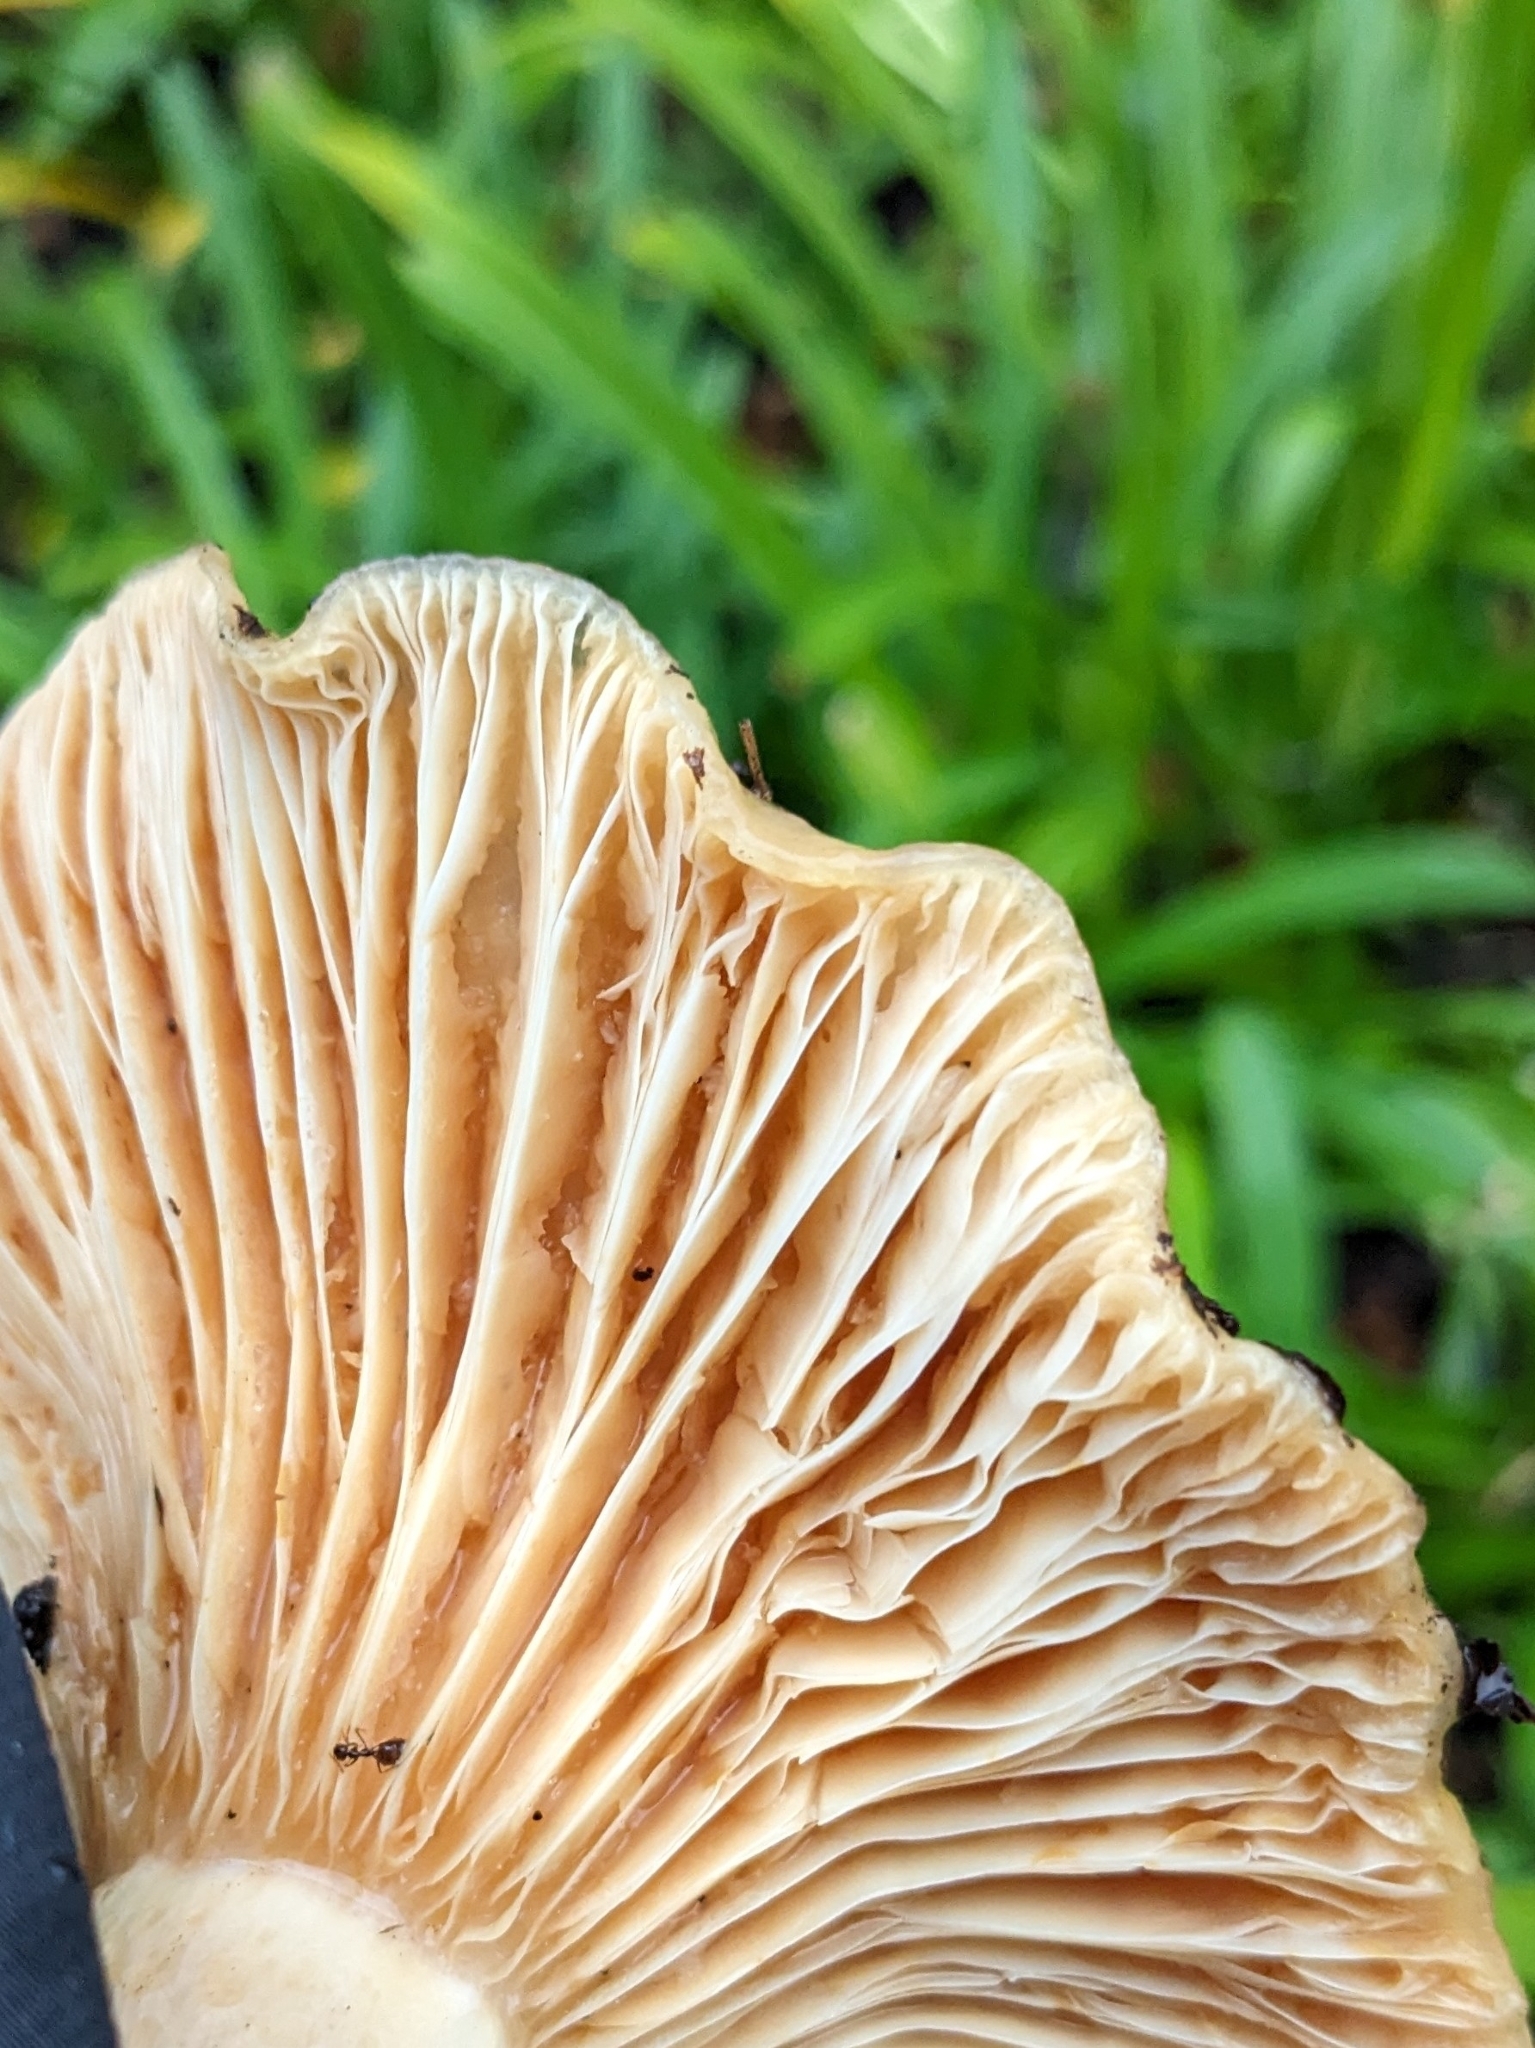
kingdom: Fungi
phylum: Basidiomycota
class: Agaricomycetes
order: Russulales
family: Russulaceae
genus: Lactarius
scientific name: Lactarius alnicola
